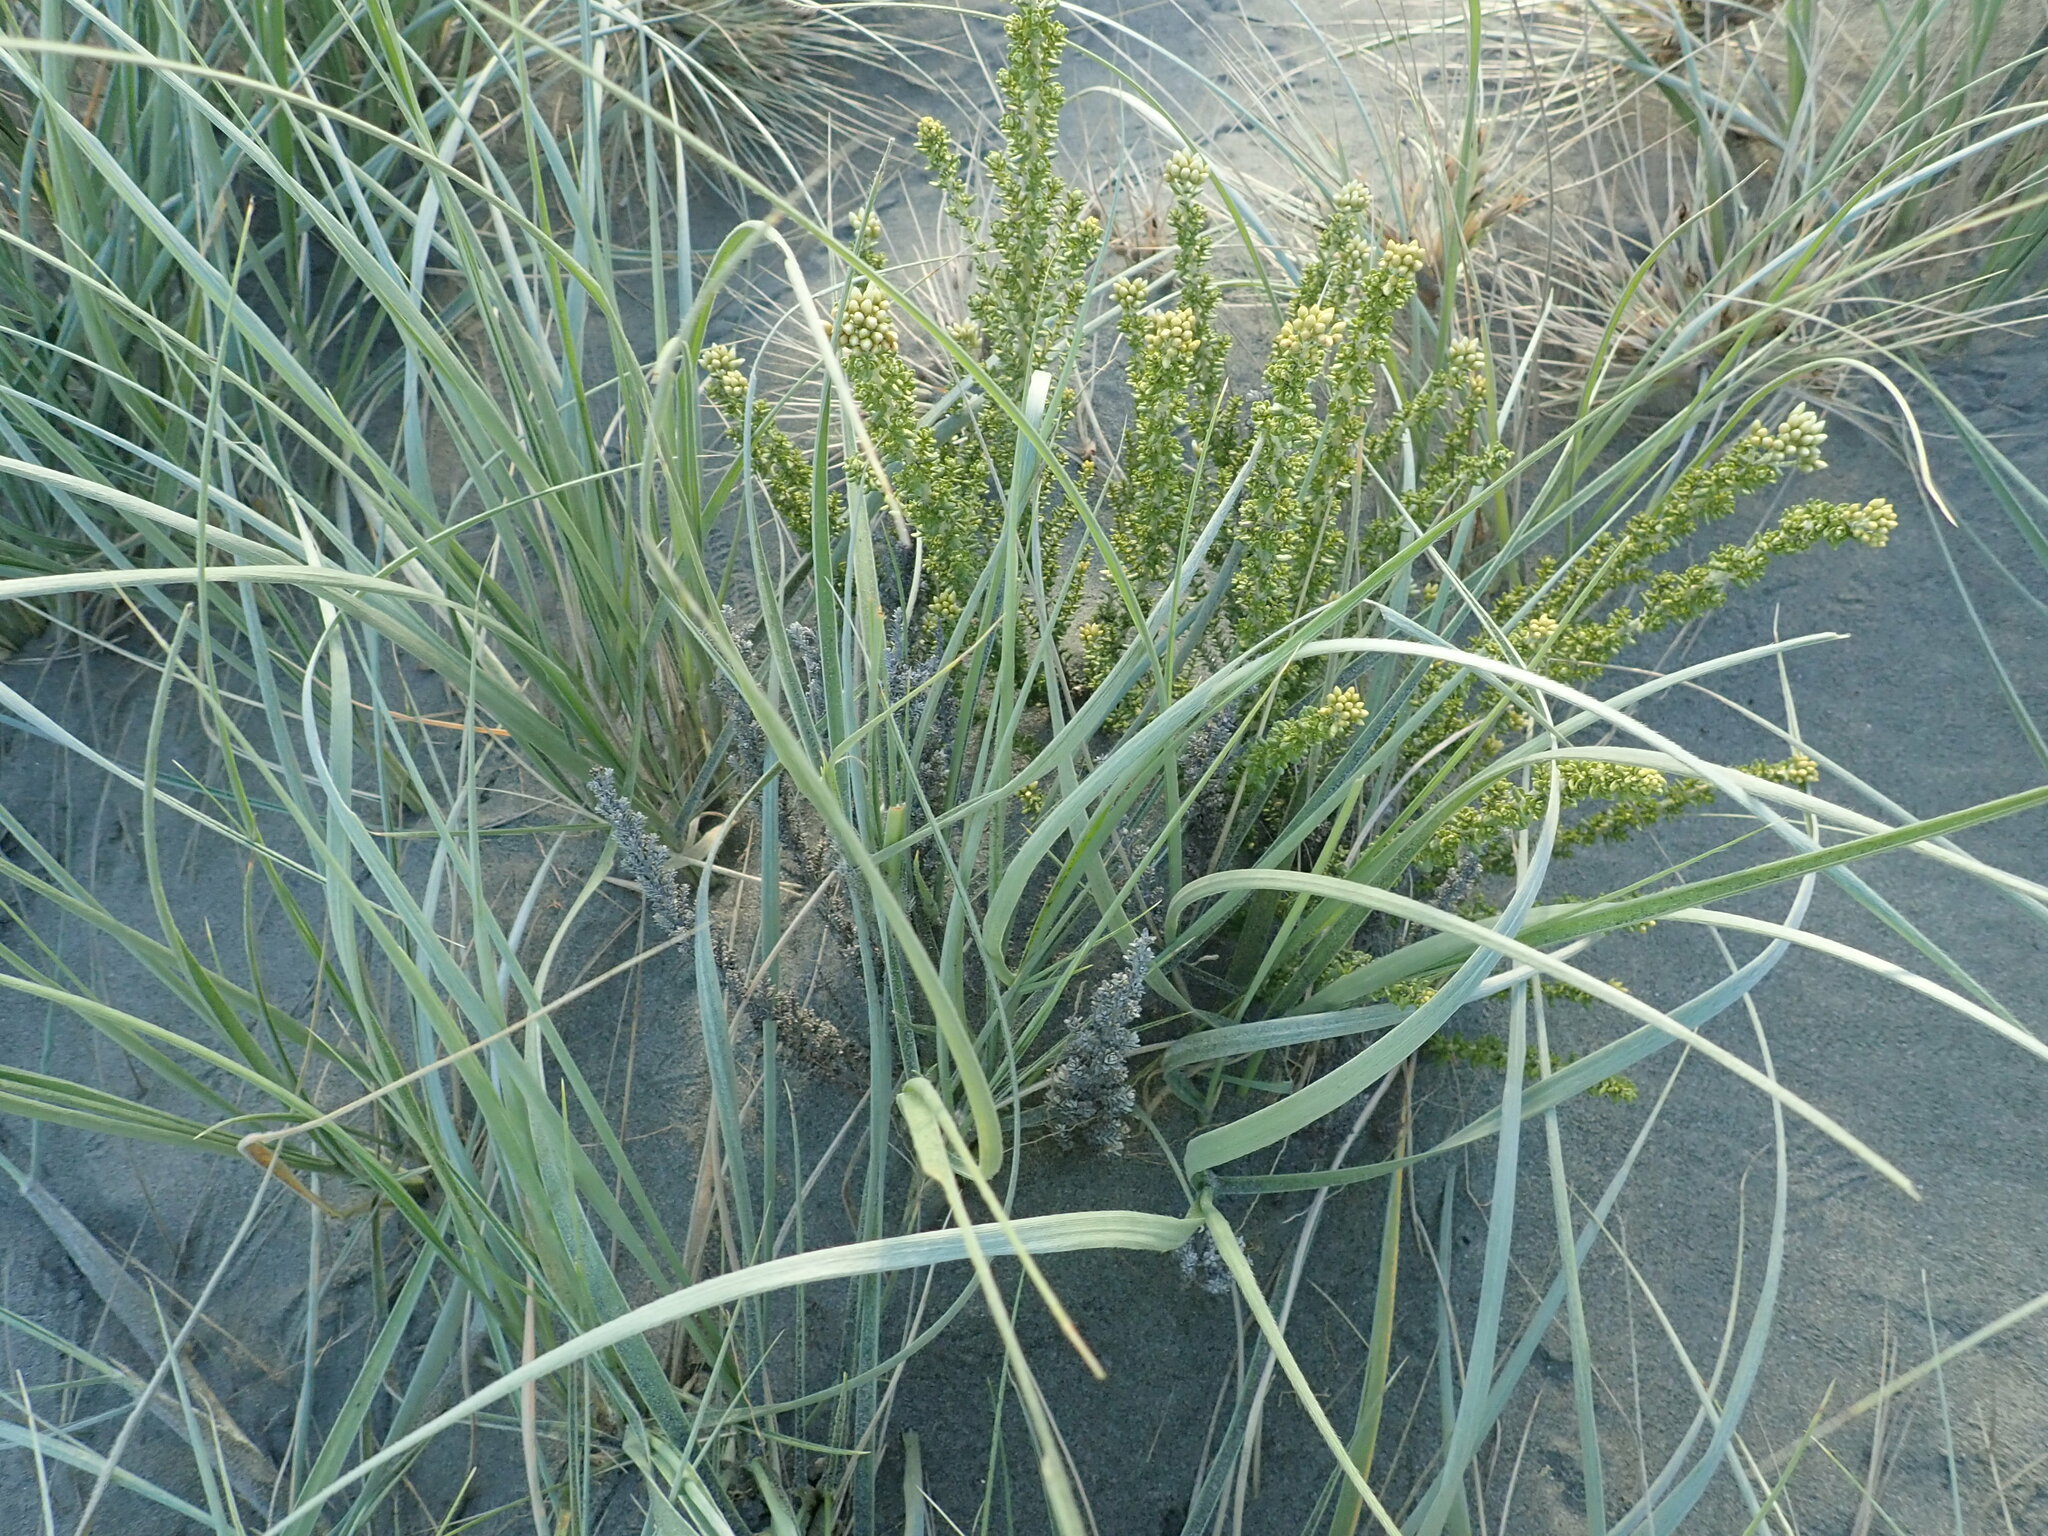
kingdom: Plantae
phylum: Tracheophyta
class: Magnoliopsida
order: Asterales
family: Asteraceae
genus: Ozothamnus
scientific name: Ozothamnus leptophyllus
